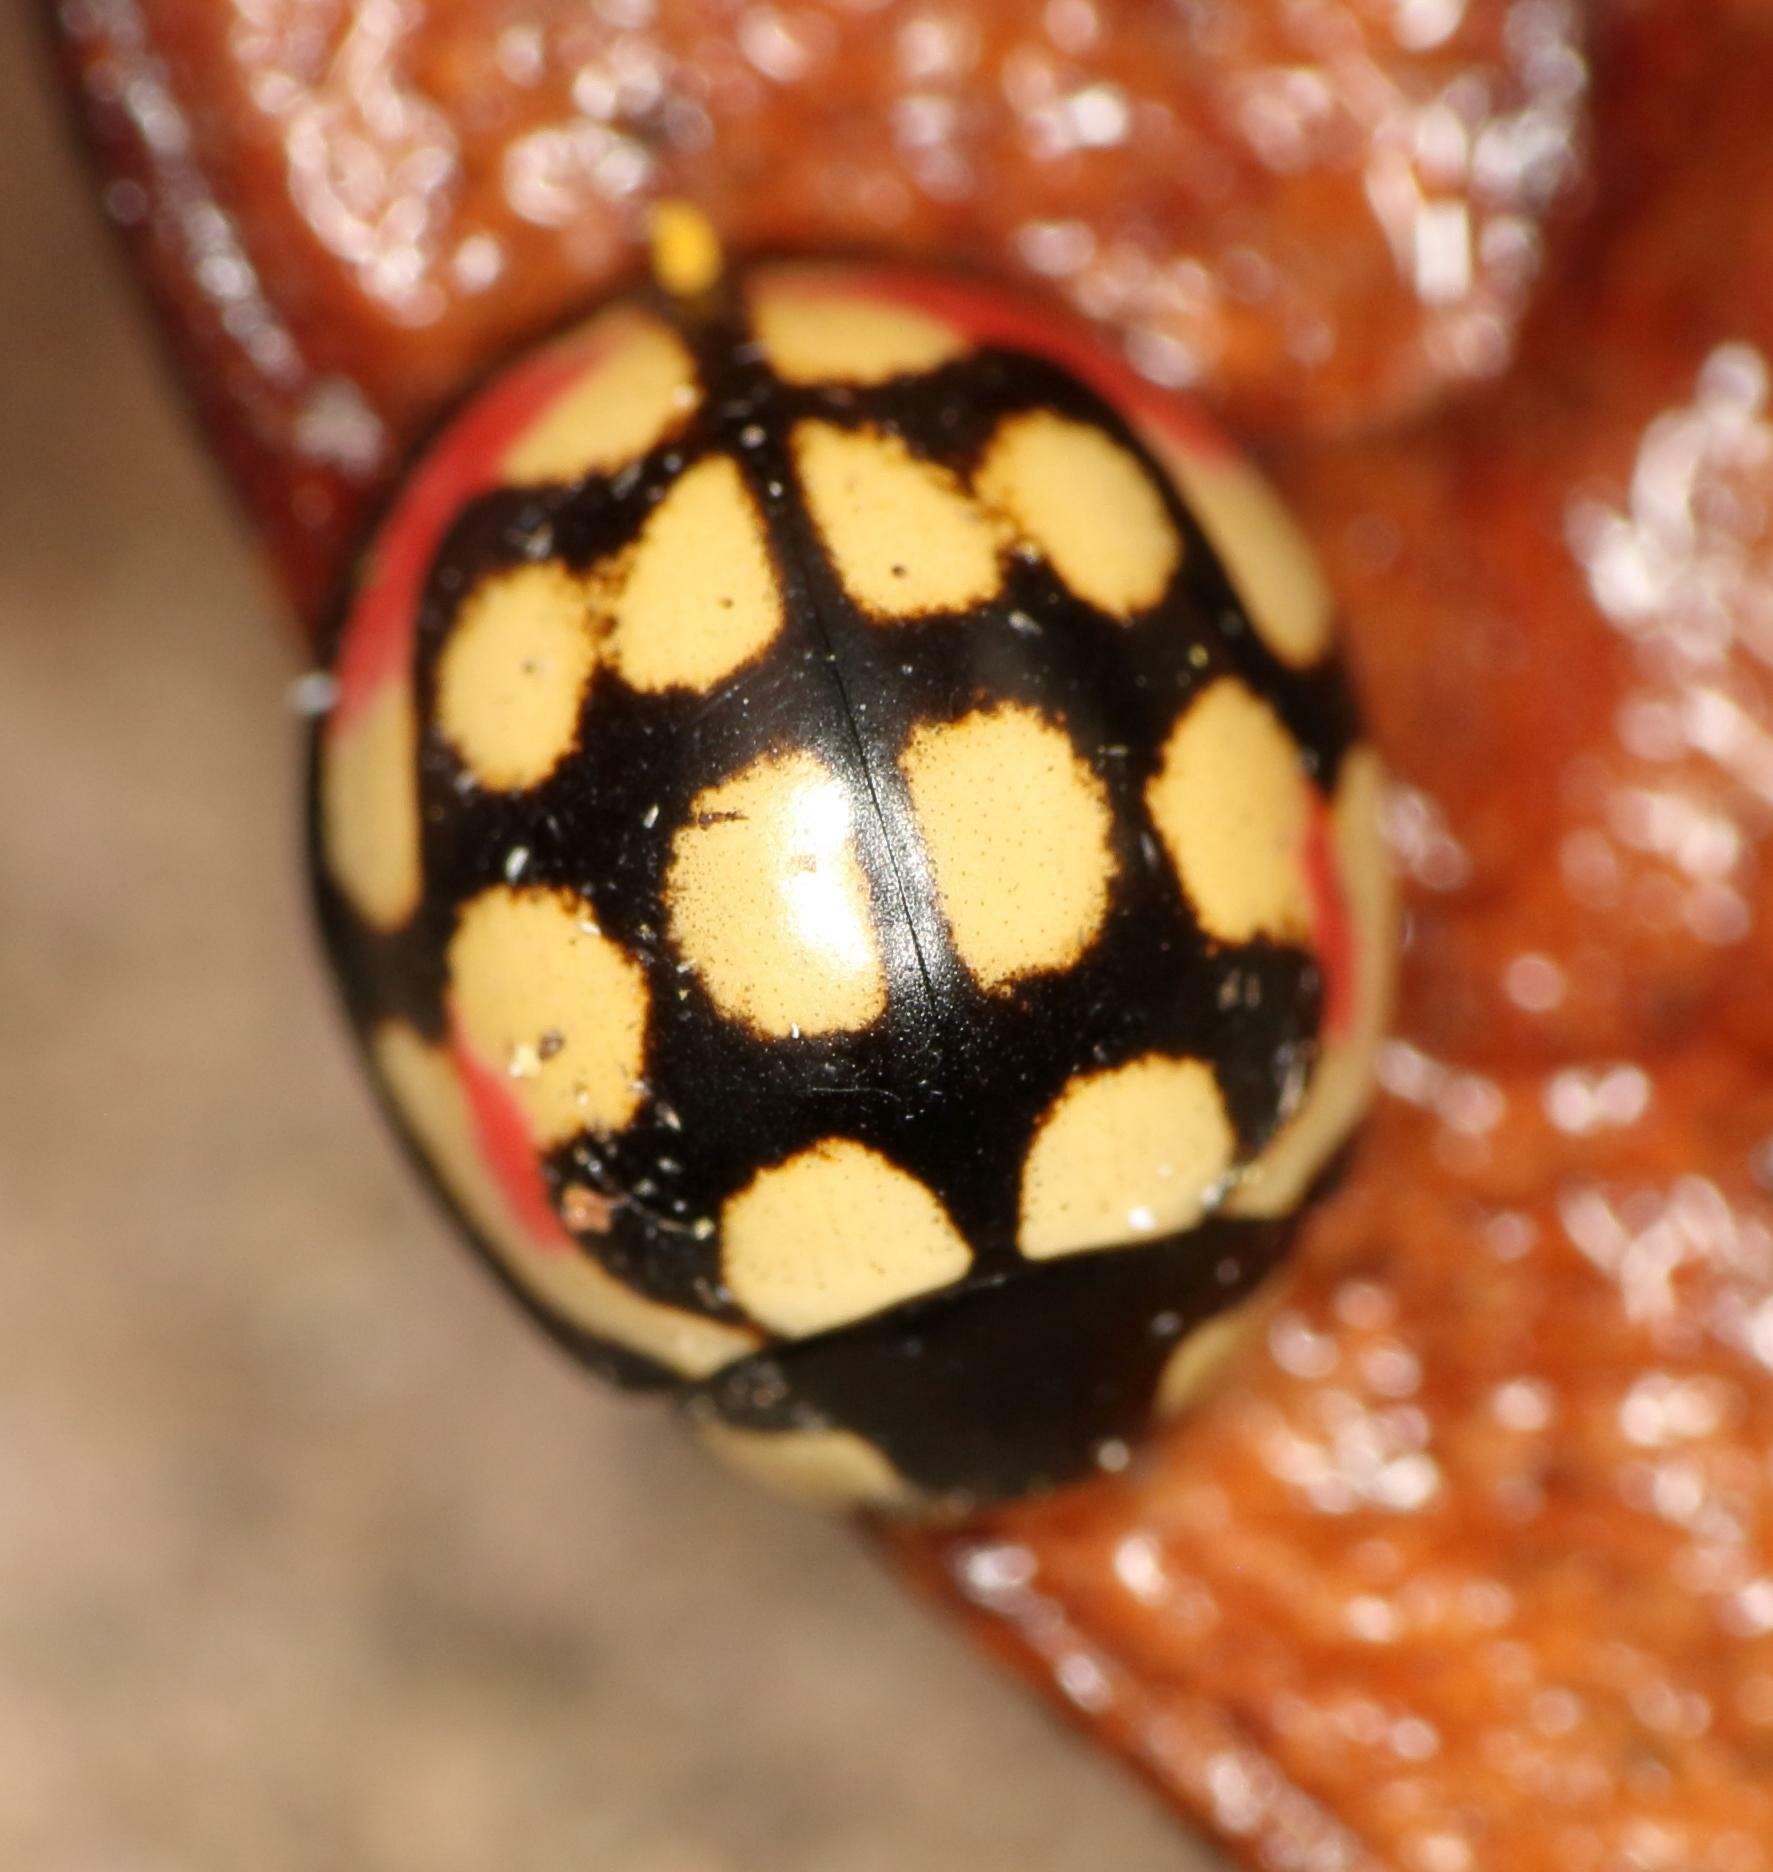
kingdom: Animalia
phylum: Arthropoda
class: Insecta
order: Coleoptera
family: Coccinellidae
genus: Cheilomenes
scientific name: Cheilomenes sulphurea
